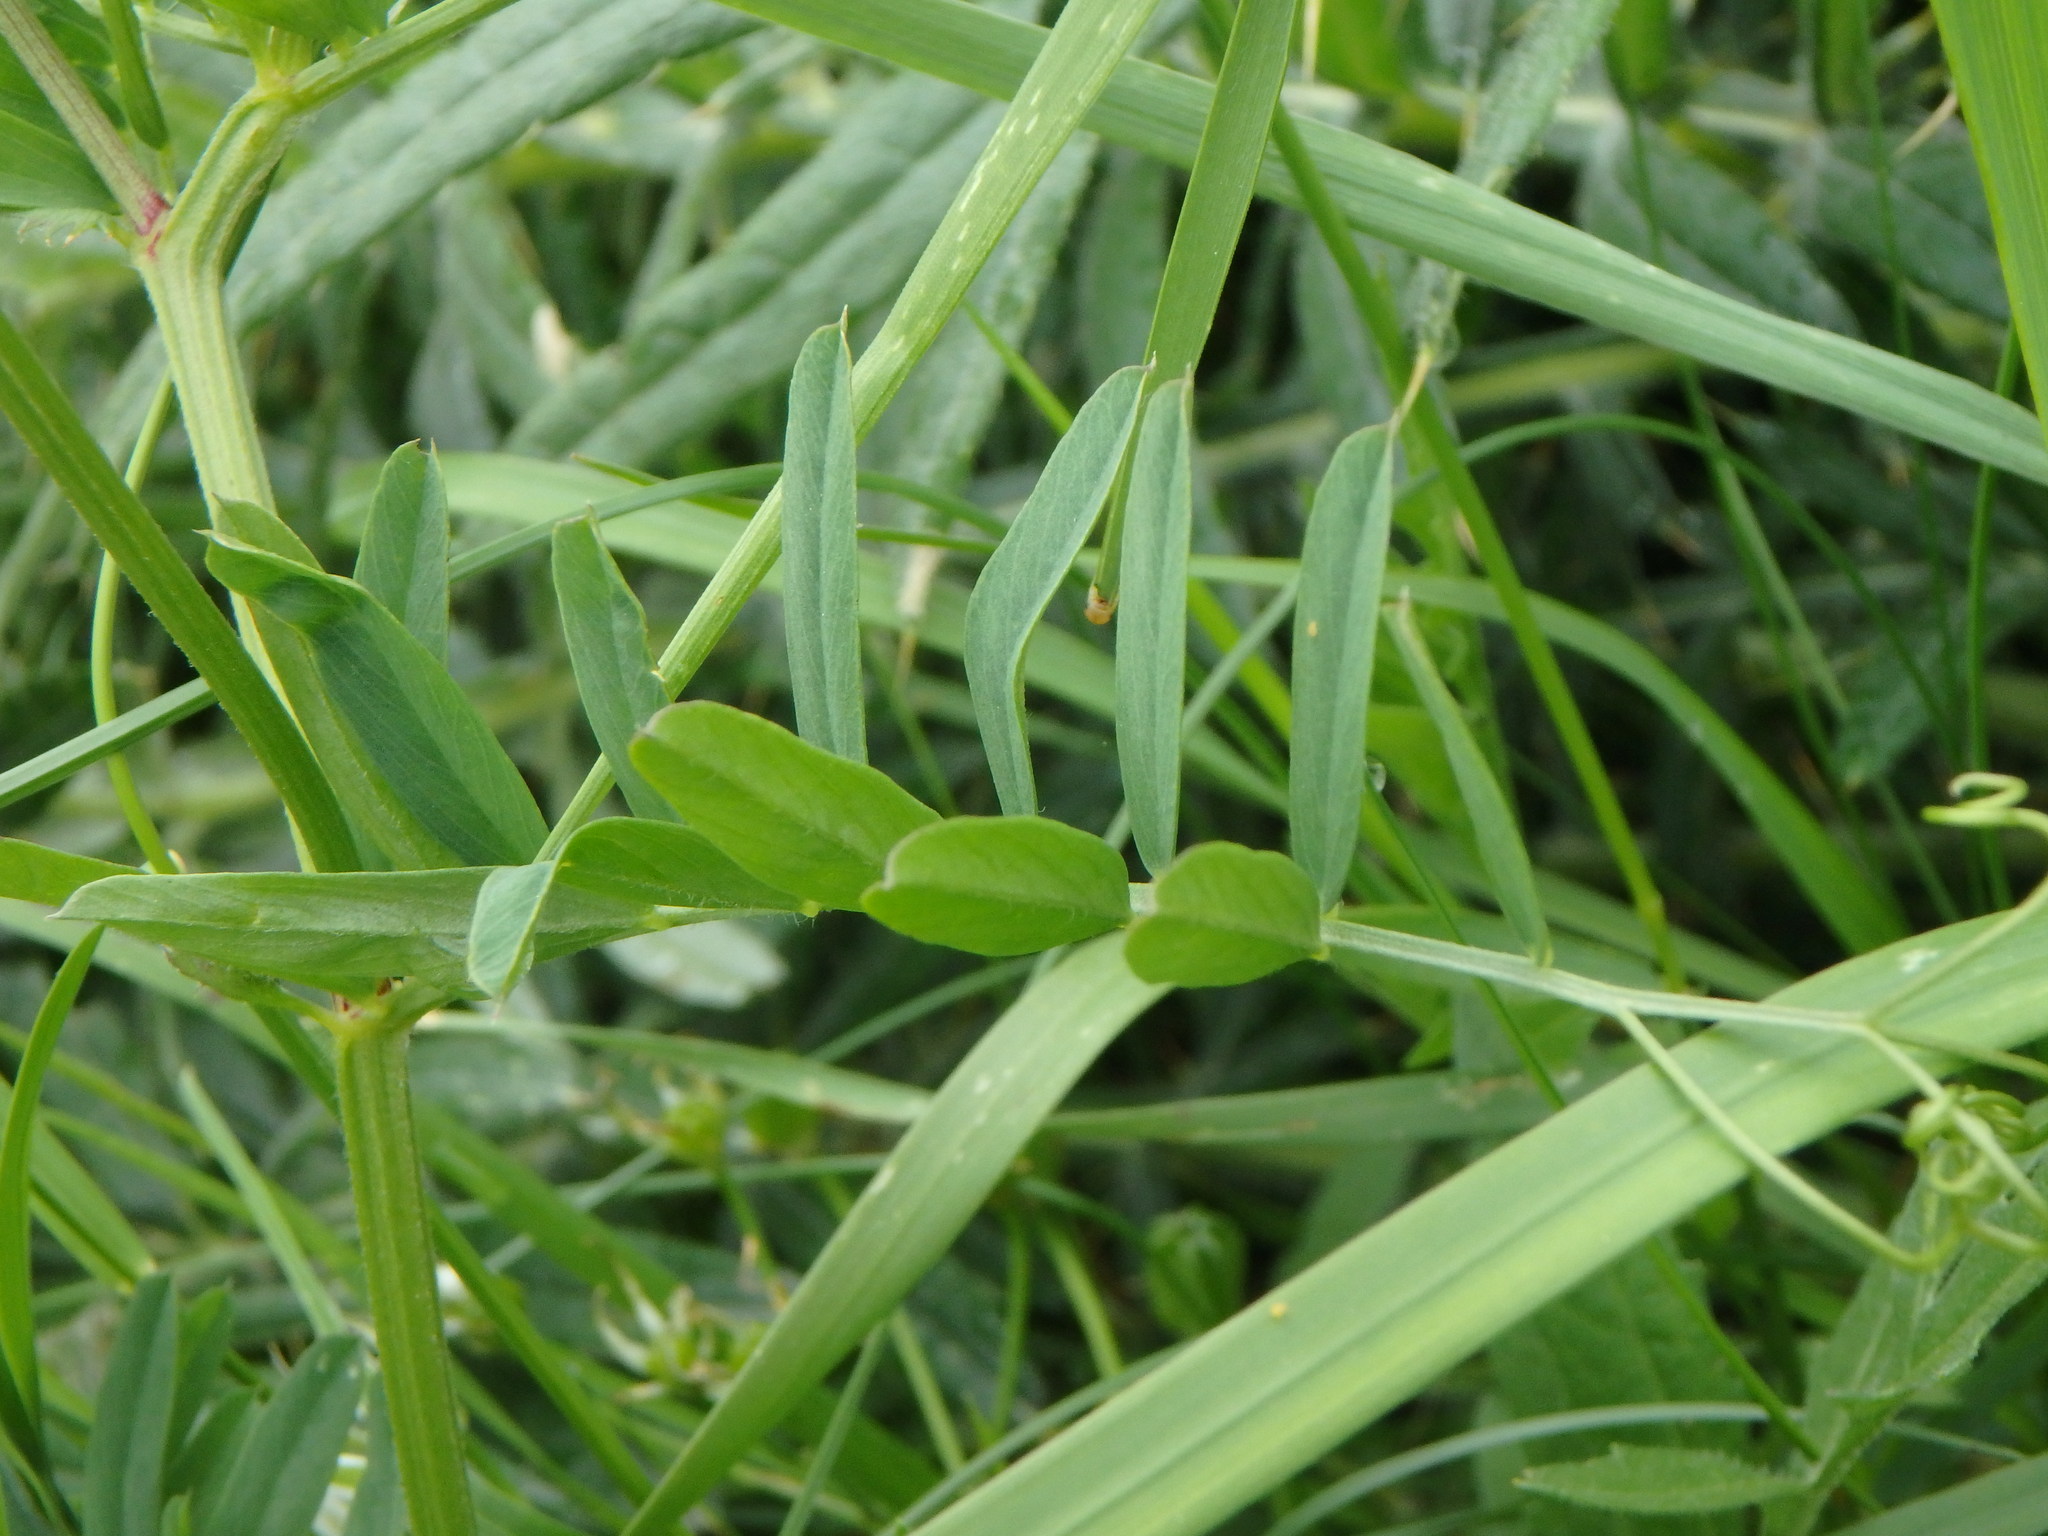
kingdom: Plantae
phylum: Tracheophyta
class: Magnoliopsida
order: Fabales
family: Fabaceae
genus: Vicia
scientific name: Vicia onobrychioides
